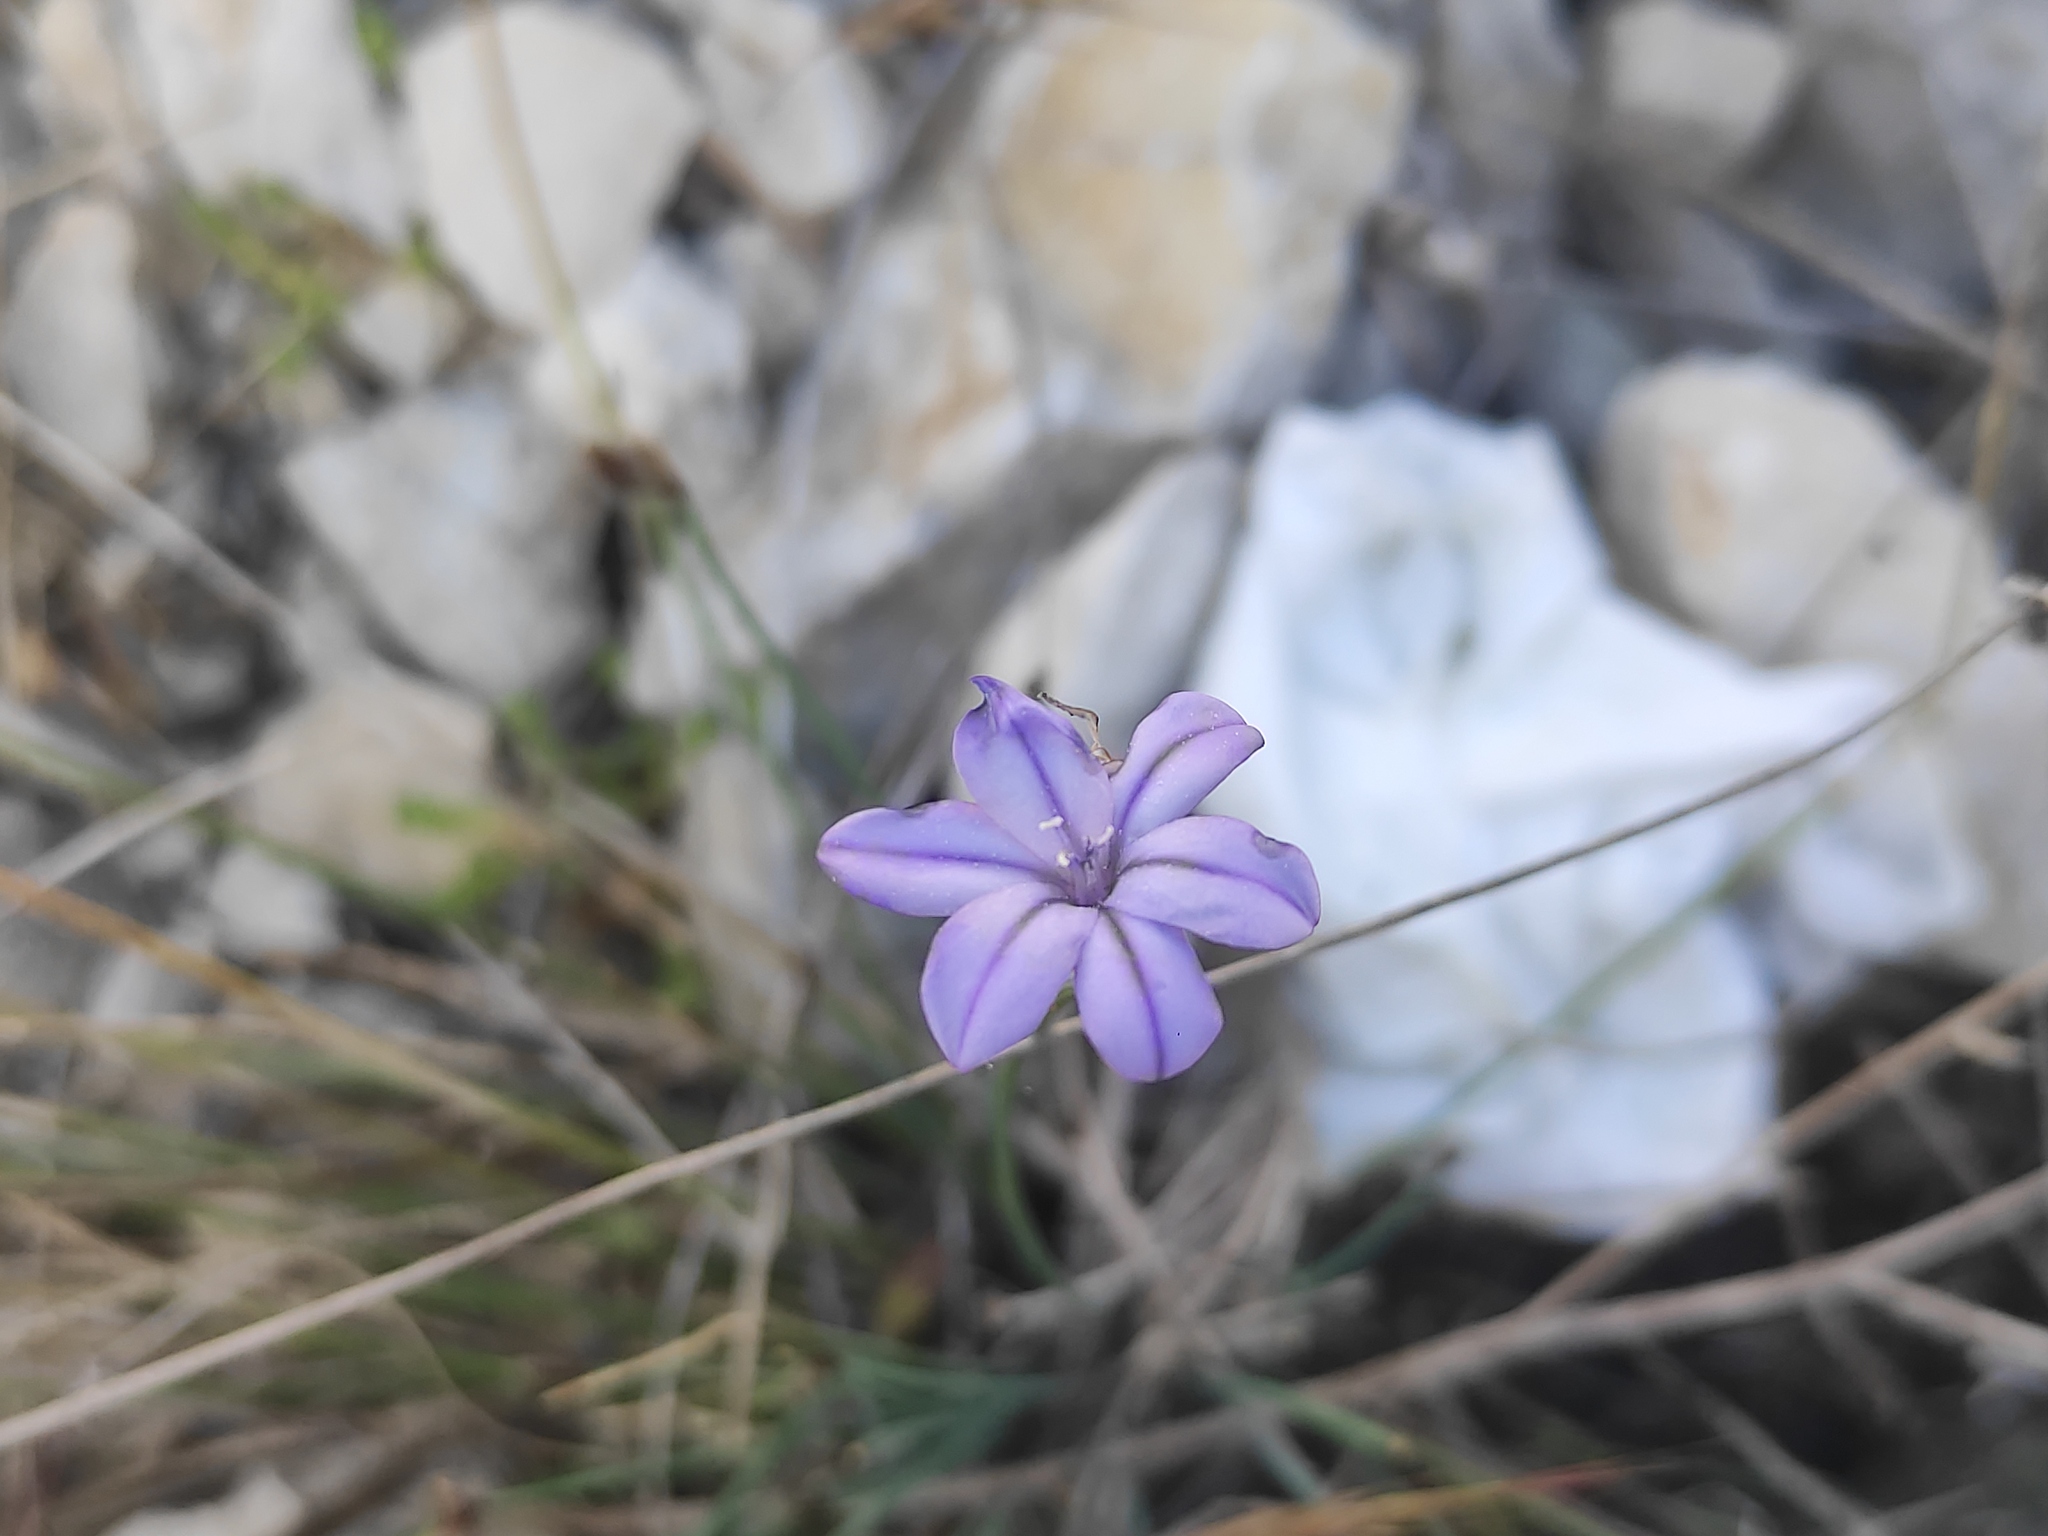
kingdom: Plantae
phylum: Tracheophyta
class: Liliopsida
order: Asparagales
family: Asparagaceae
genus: Aphyllanthes
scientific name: Aphyllanthes monspeliensis
